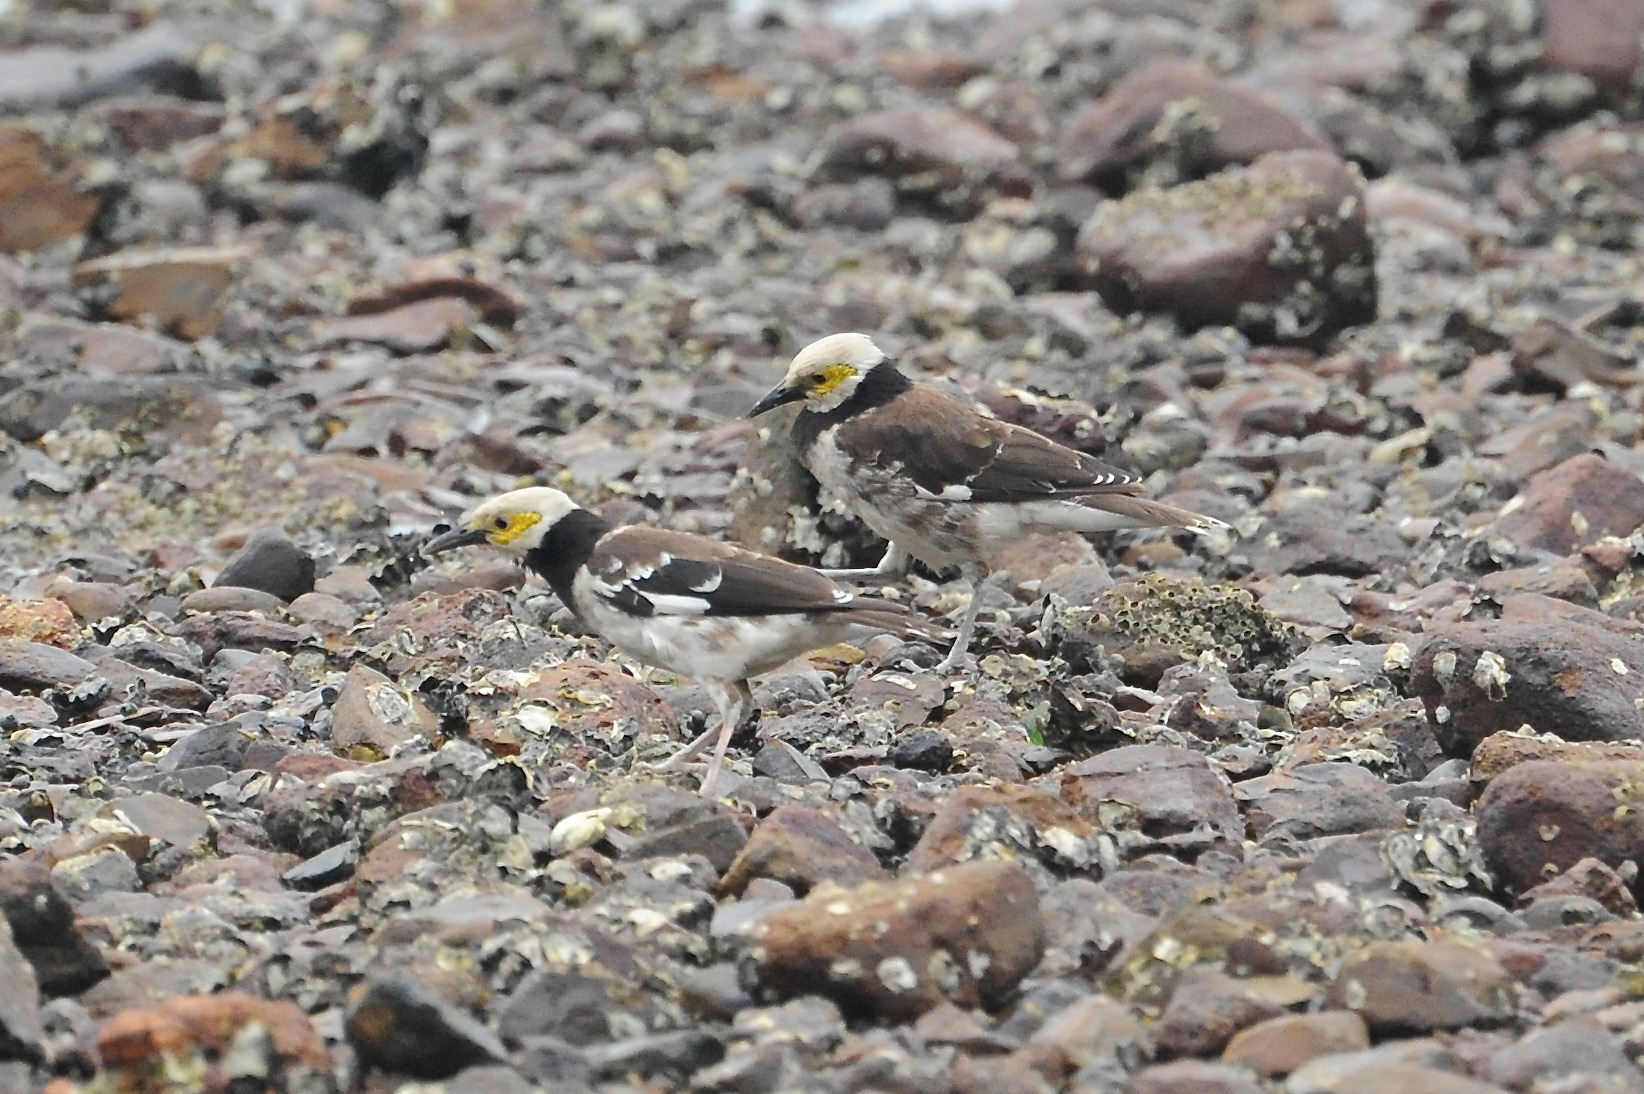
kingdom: Animalia
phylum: Chordata
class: Aves
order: Passeriformes
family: Sturnidae
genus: Gracupica
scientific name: Gracupica nigricollis
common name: Black-collared starling
